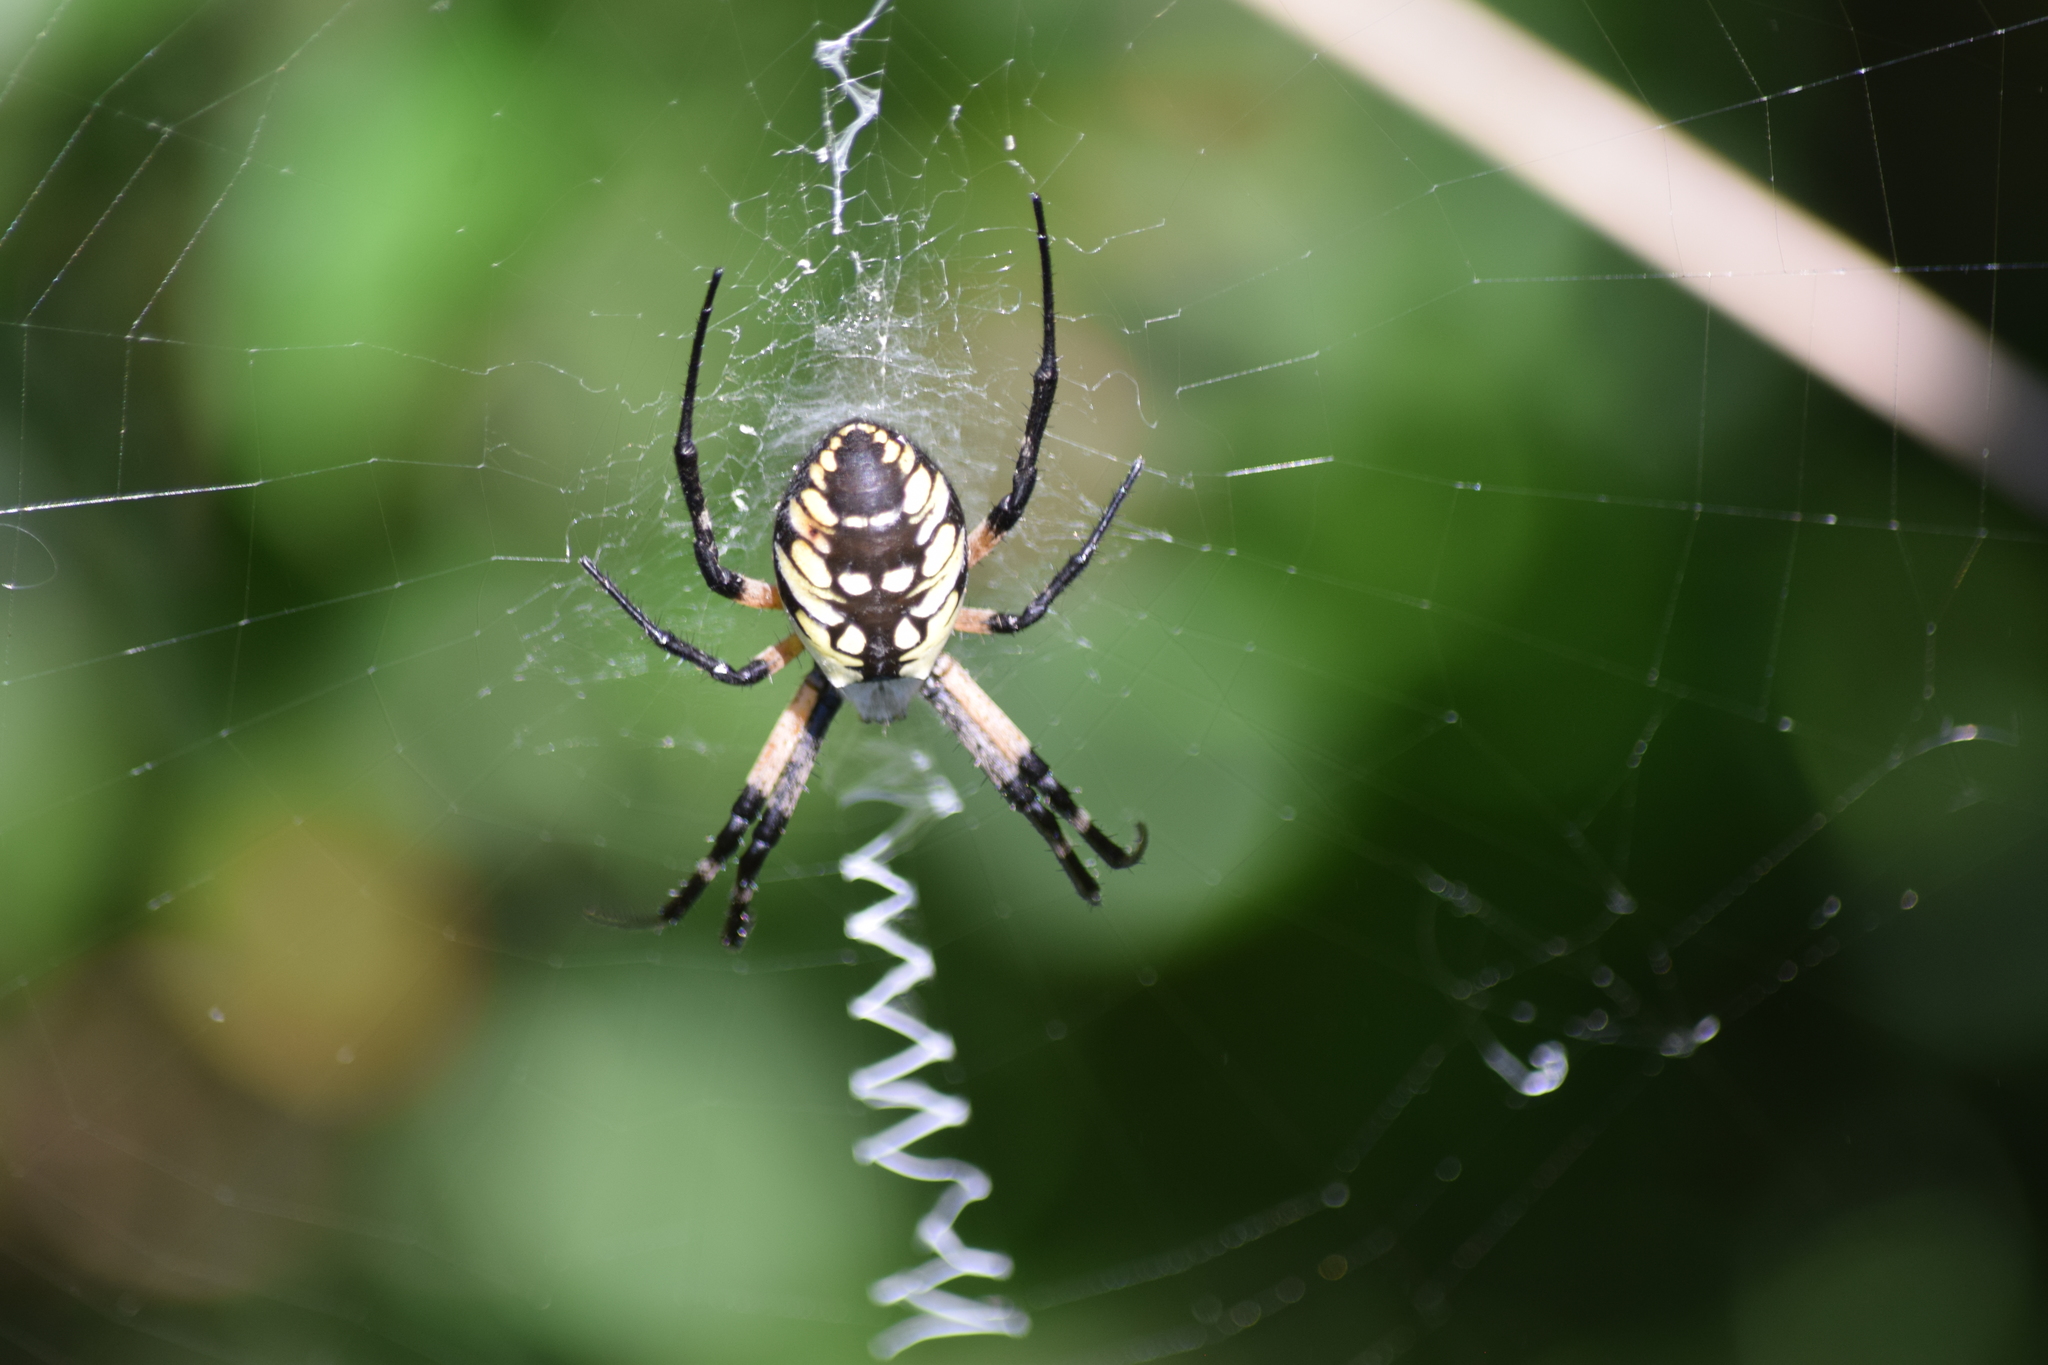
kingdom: Animalia
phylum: Arthropoda
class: Arachnida
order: Araneae
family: Araneidae
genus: Argiope
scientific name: Argiope aurantia
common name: Orb weavers
